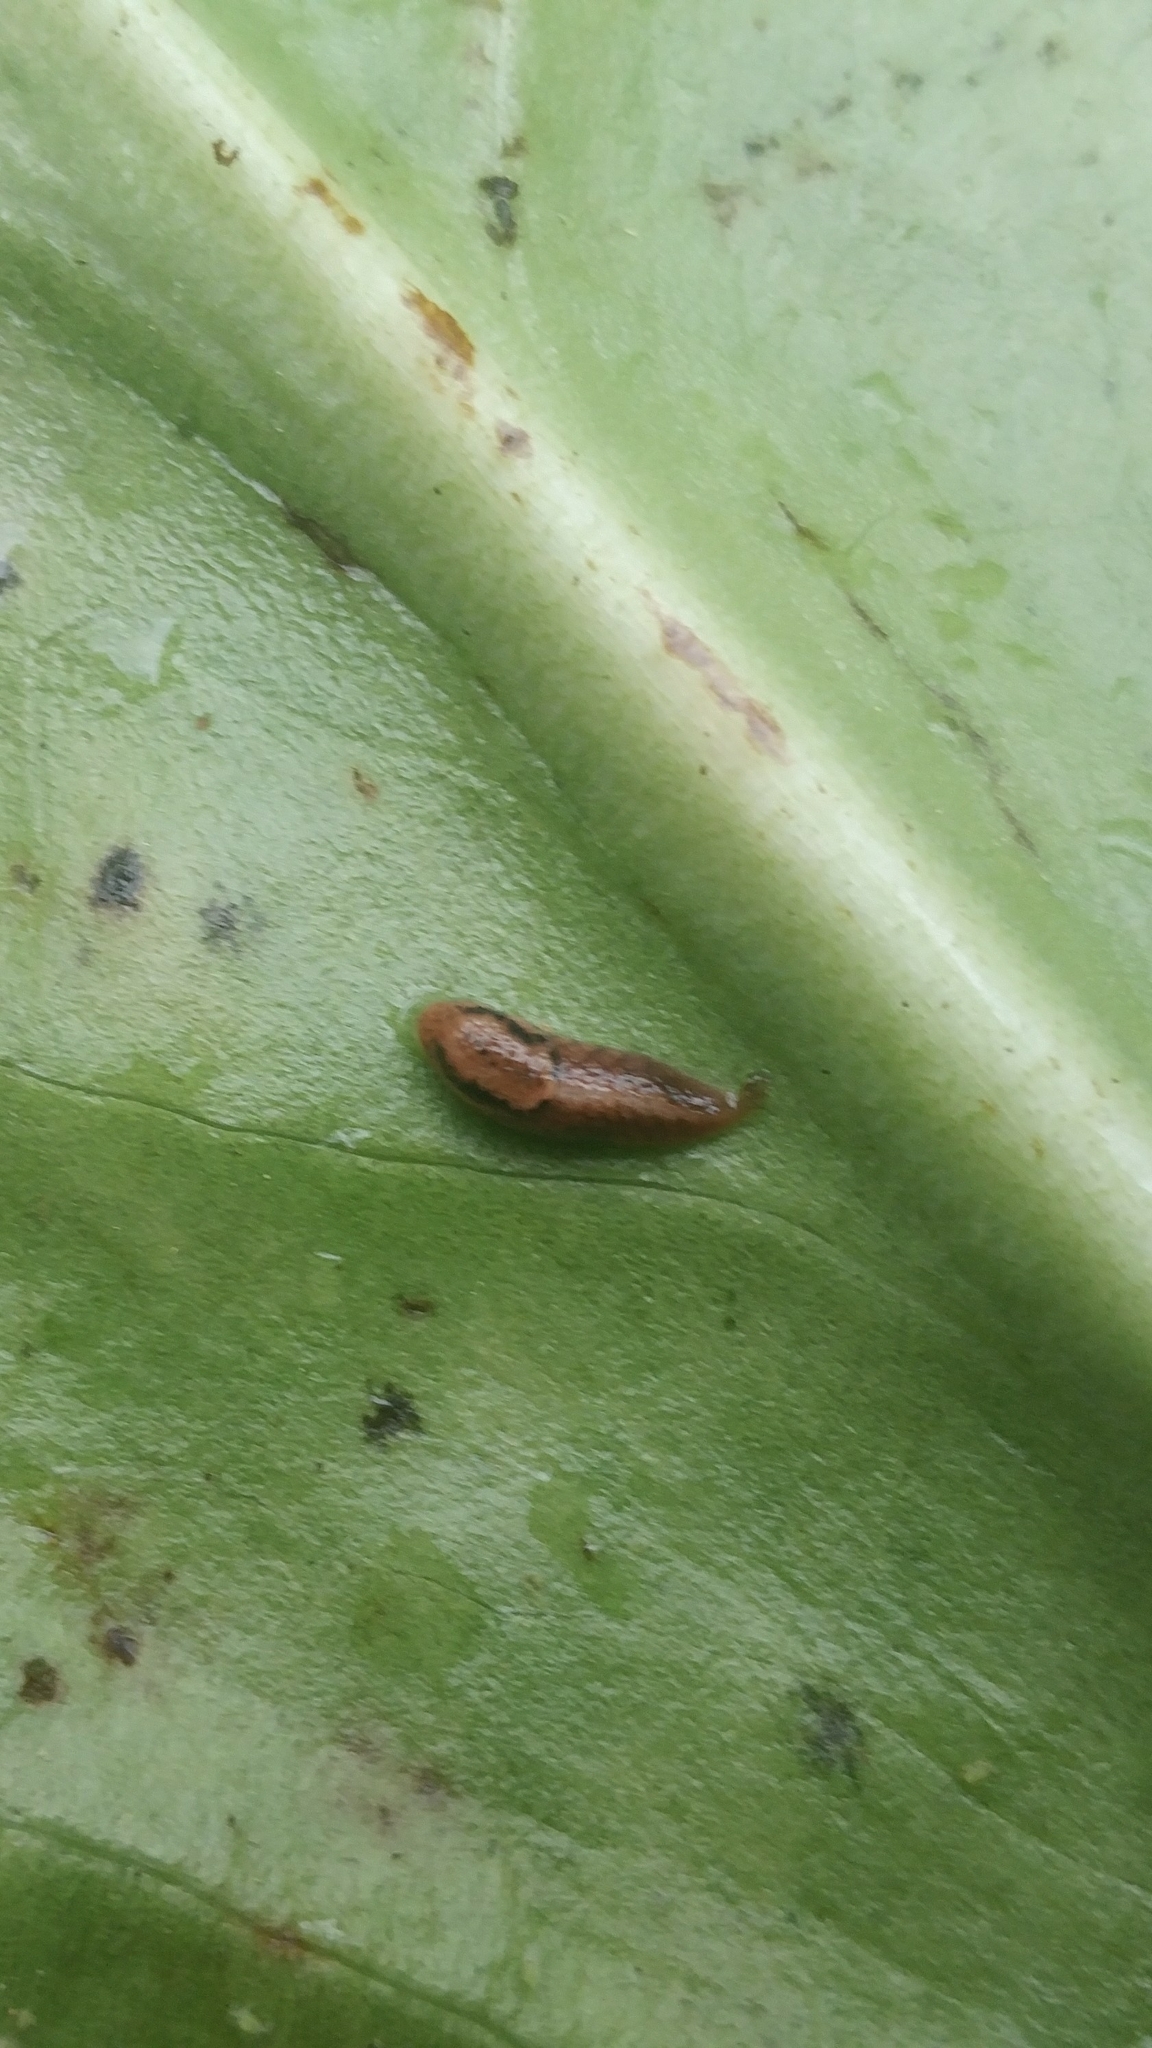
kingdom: Animalia
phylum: Mollusca
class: Gastropoda
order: Stylommatophora
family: Ariolimacidae
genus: Prophysaon
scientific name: Prophysaon andersonii
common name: Reticulate taildropper
